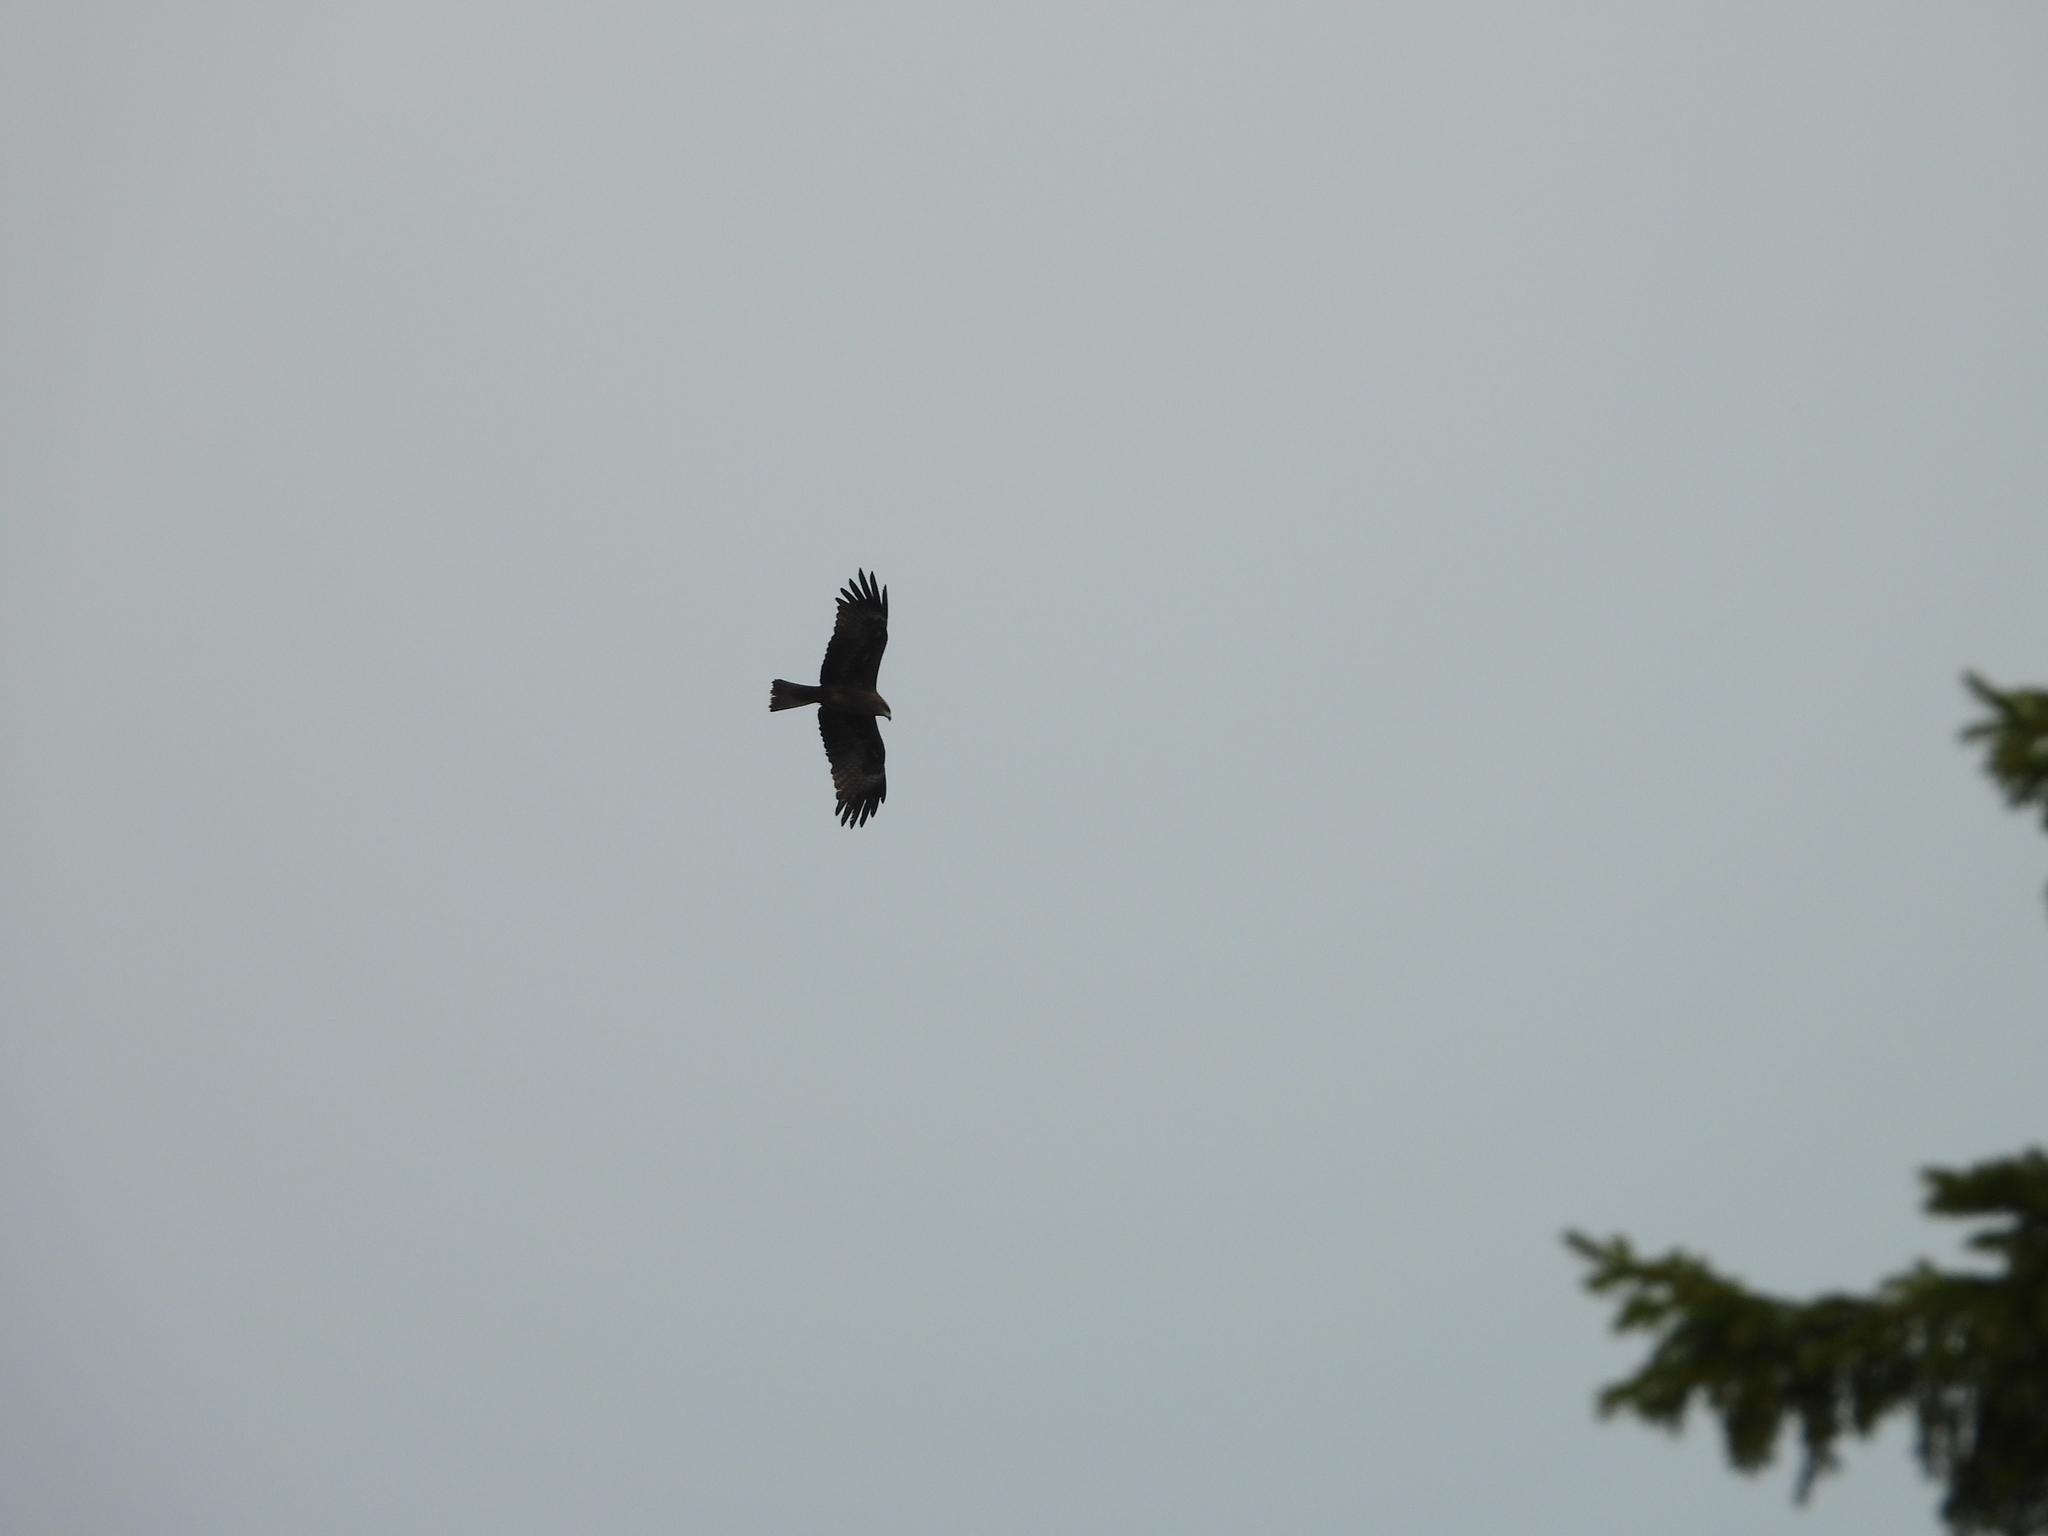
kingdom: Animalia
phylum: Chordata
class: Aves
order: Accipitriformes
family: Accipitridae
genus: Milvus
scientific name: Milvus migrans
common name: Black kite
